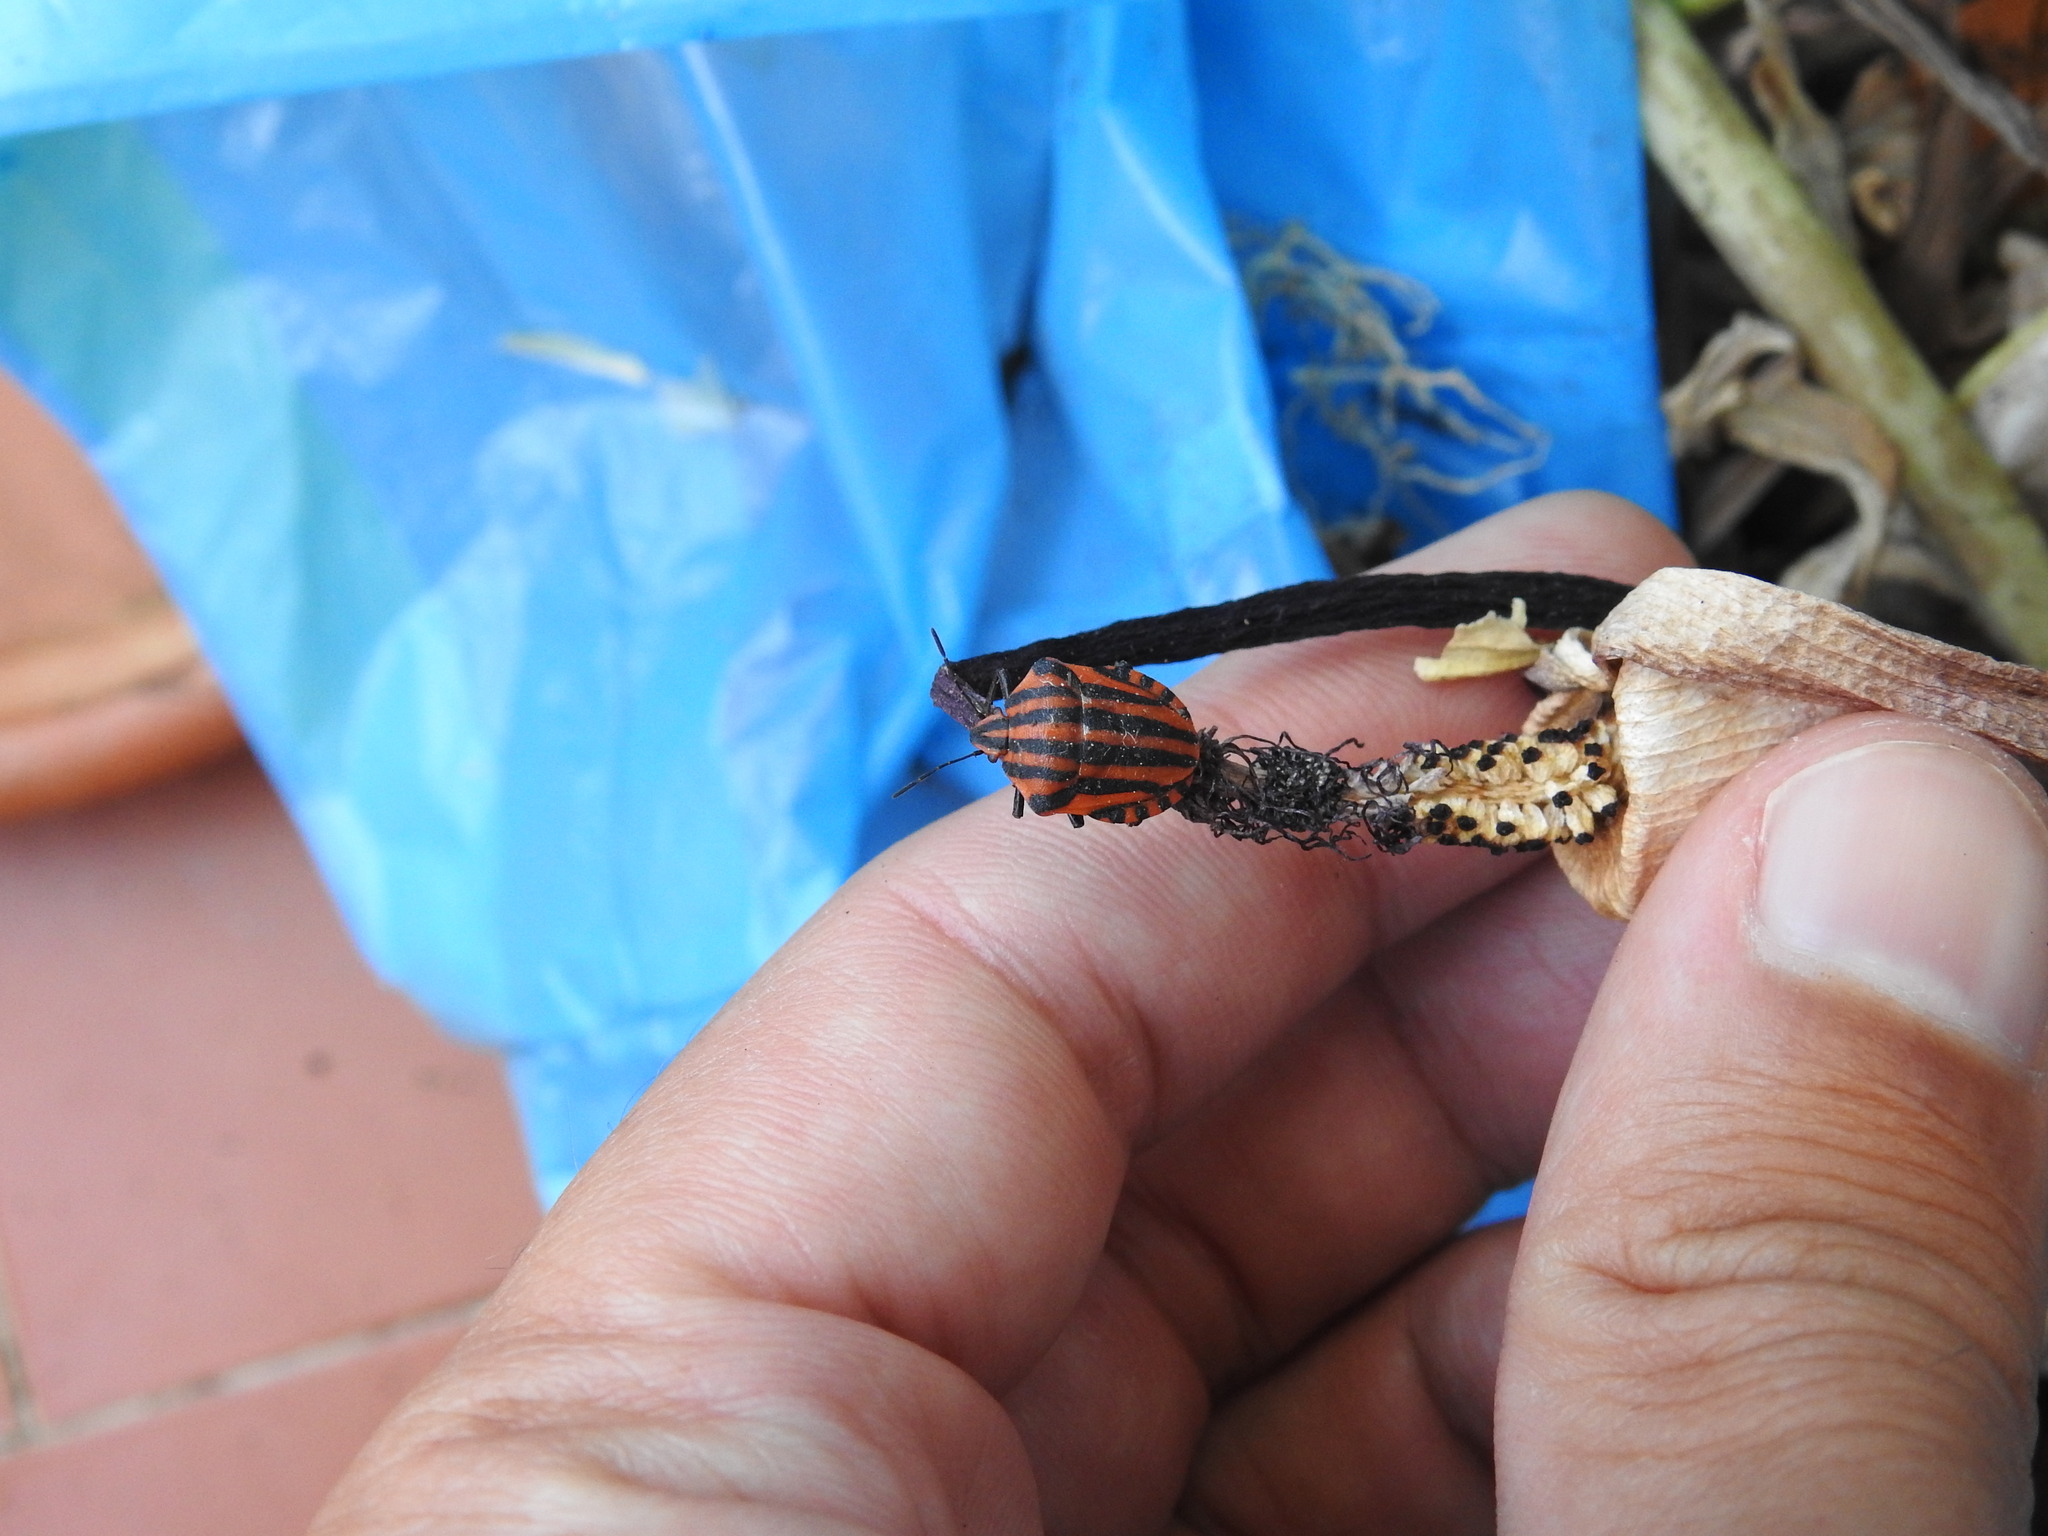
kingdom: Animalia
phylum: Arthropoda
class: Insecta
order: Hemiptera
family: Pentatomidae
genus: Graphosoma
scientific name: Graphosoma italicum
